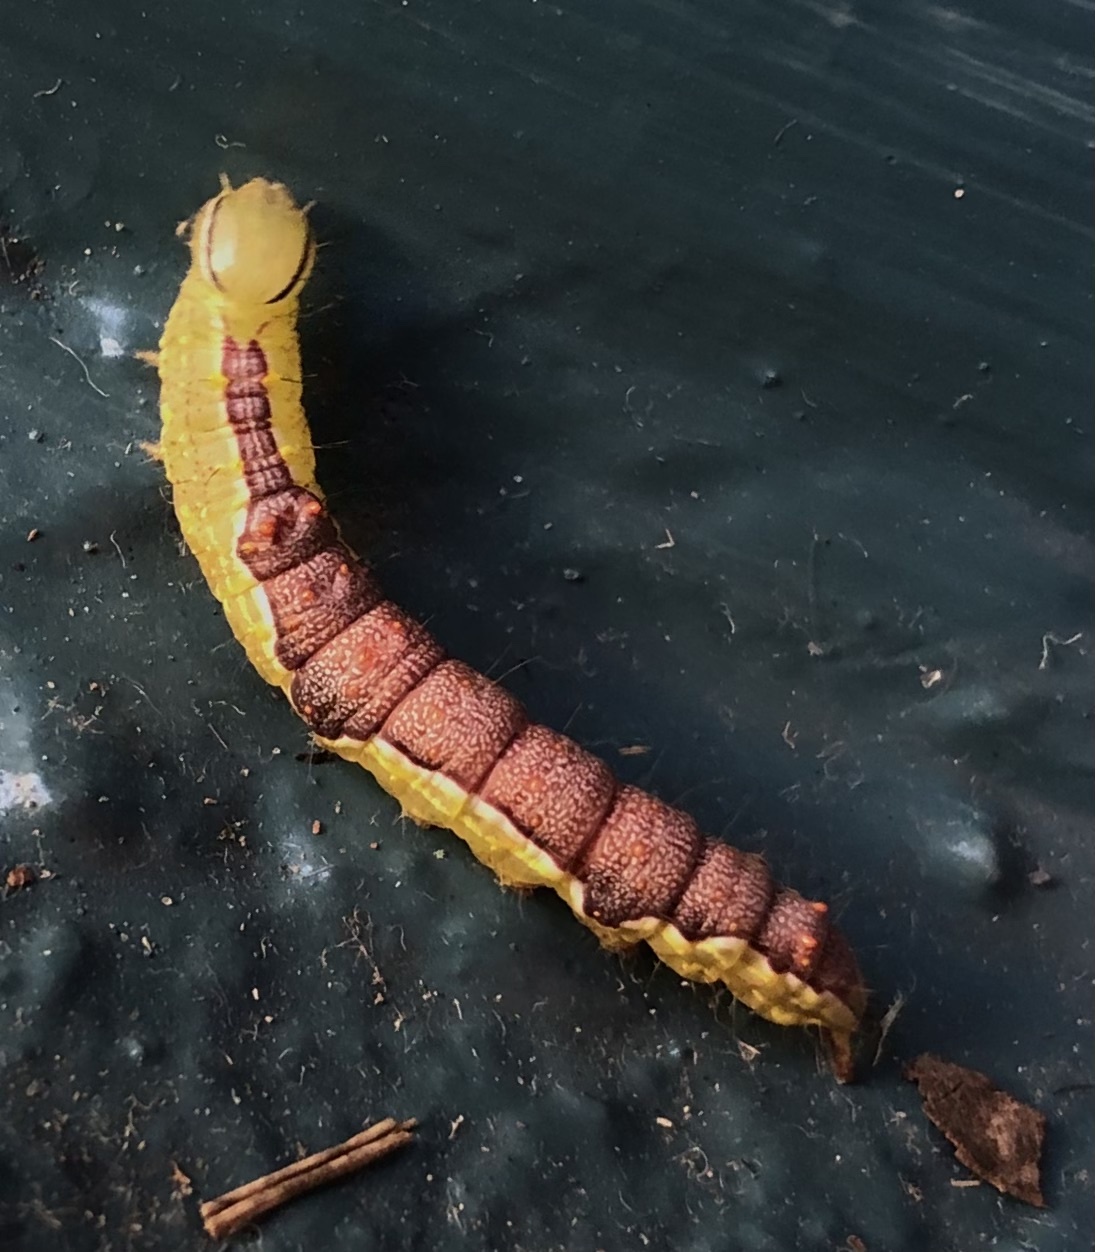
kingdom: Animalia
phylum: Arthropoda
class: Insecta
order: Lepidoptera
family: Notodontidae
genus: Lochmaeus
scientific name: Lochmaeus bilineata
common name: Double-lined prominent
